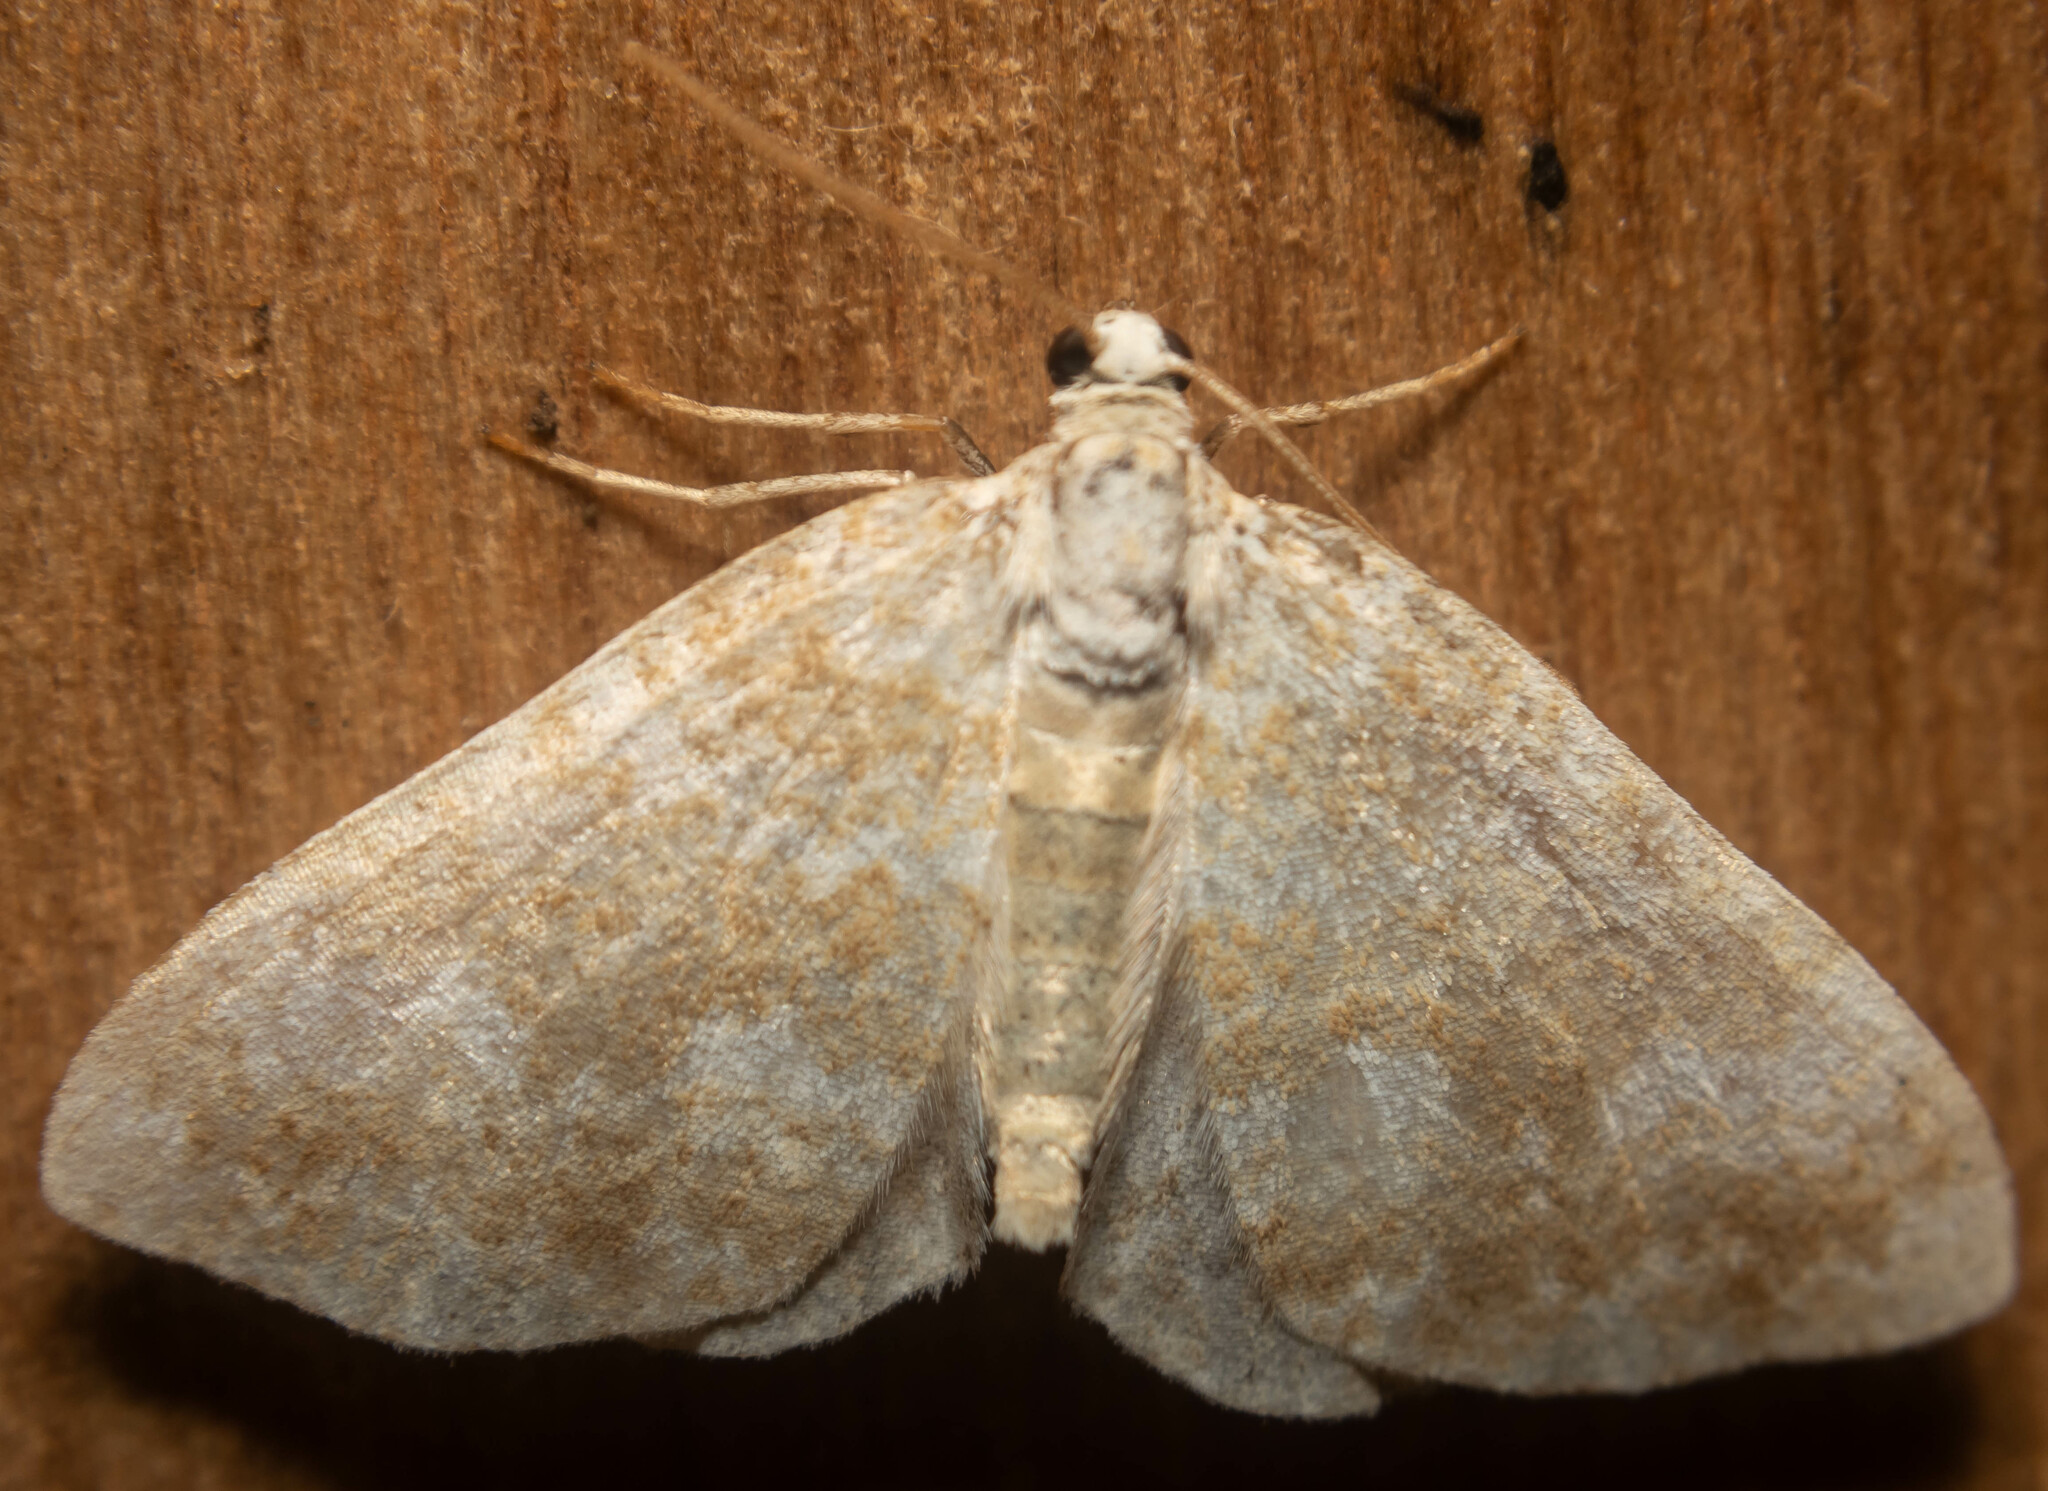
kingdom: Animalia
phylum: Arthropoda
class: Insecta
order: Lepidoptera
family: Geometridae
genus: Perizoma
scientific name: Perizoma flavofasciata
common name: Sandy carpet
